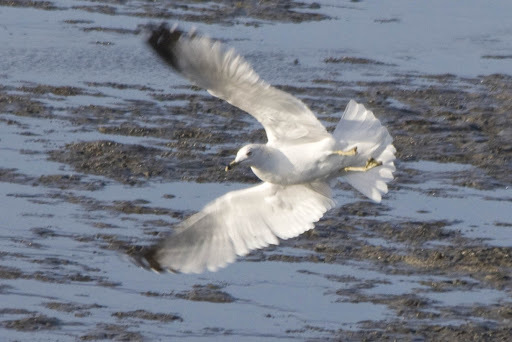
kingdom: Animalia
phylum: Chordata
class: Aves
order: Charadriiformes
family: Laridae
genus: Larus
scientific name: Larus delawarensis
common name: Ring-billed gull
